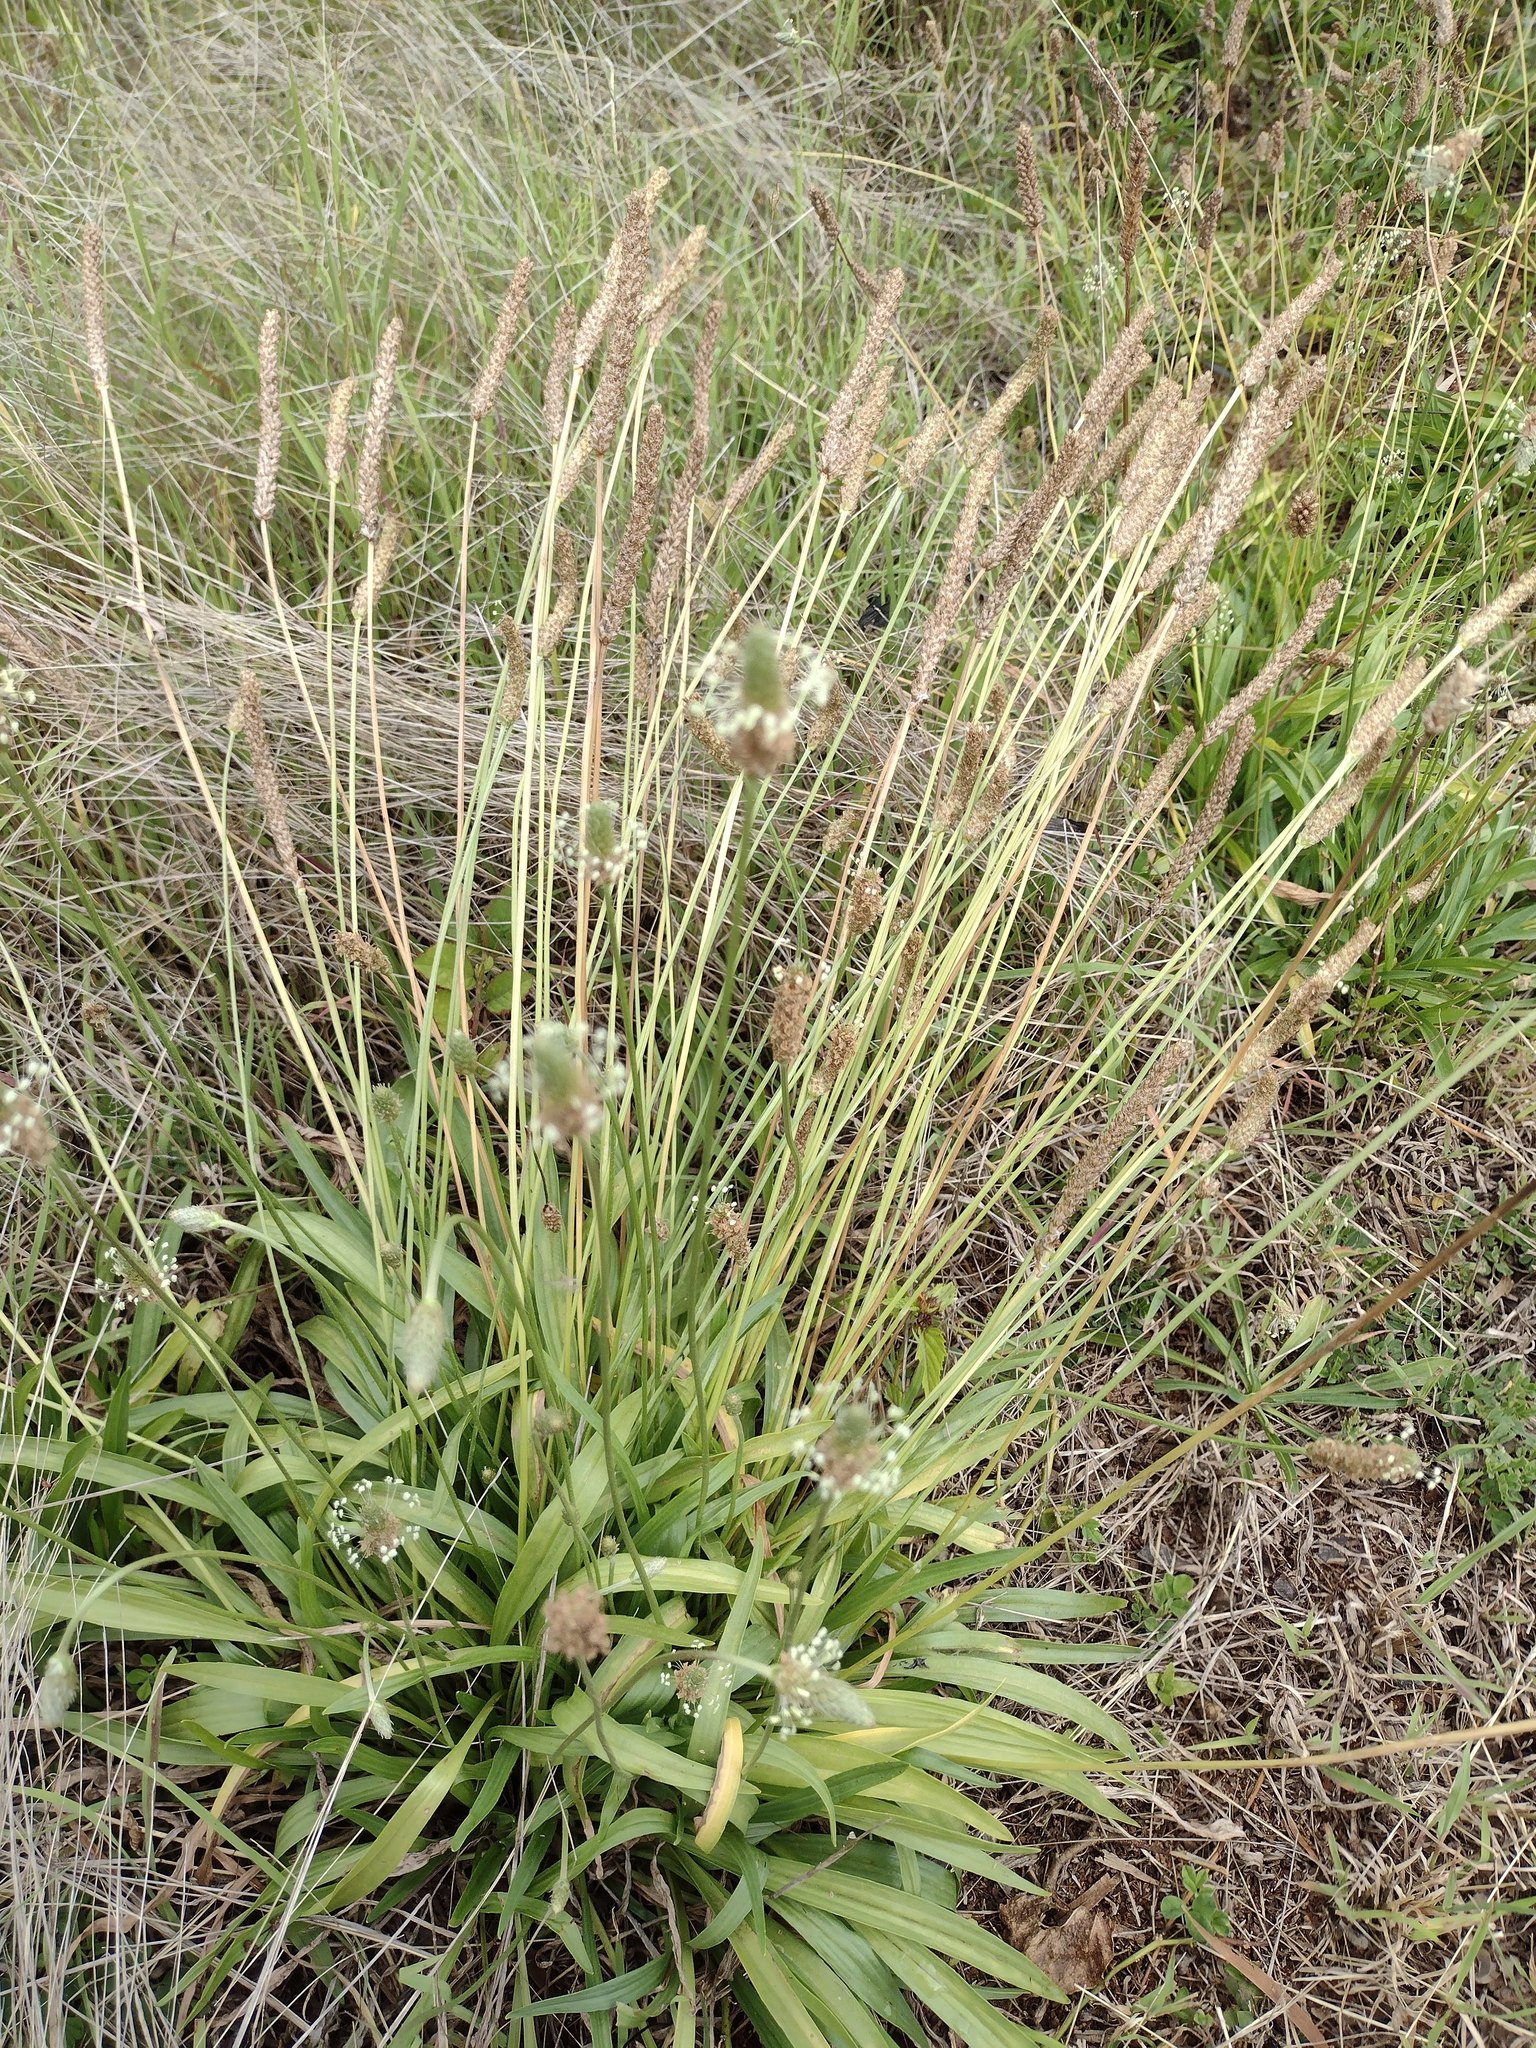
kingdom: Plantae
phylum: Tracheophyta
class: Magnoliopsida
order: Lamiales
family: Plantaginaceae
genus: Plantago
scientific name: Plantago lanceolata
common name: Ribwort plantain
